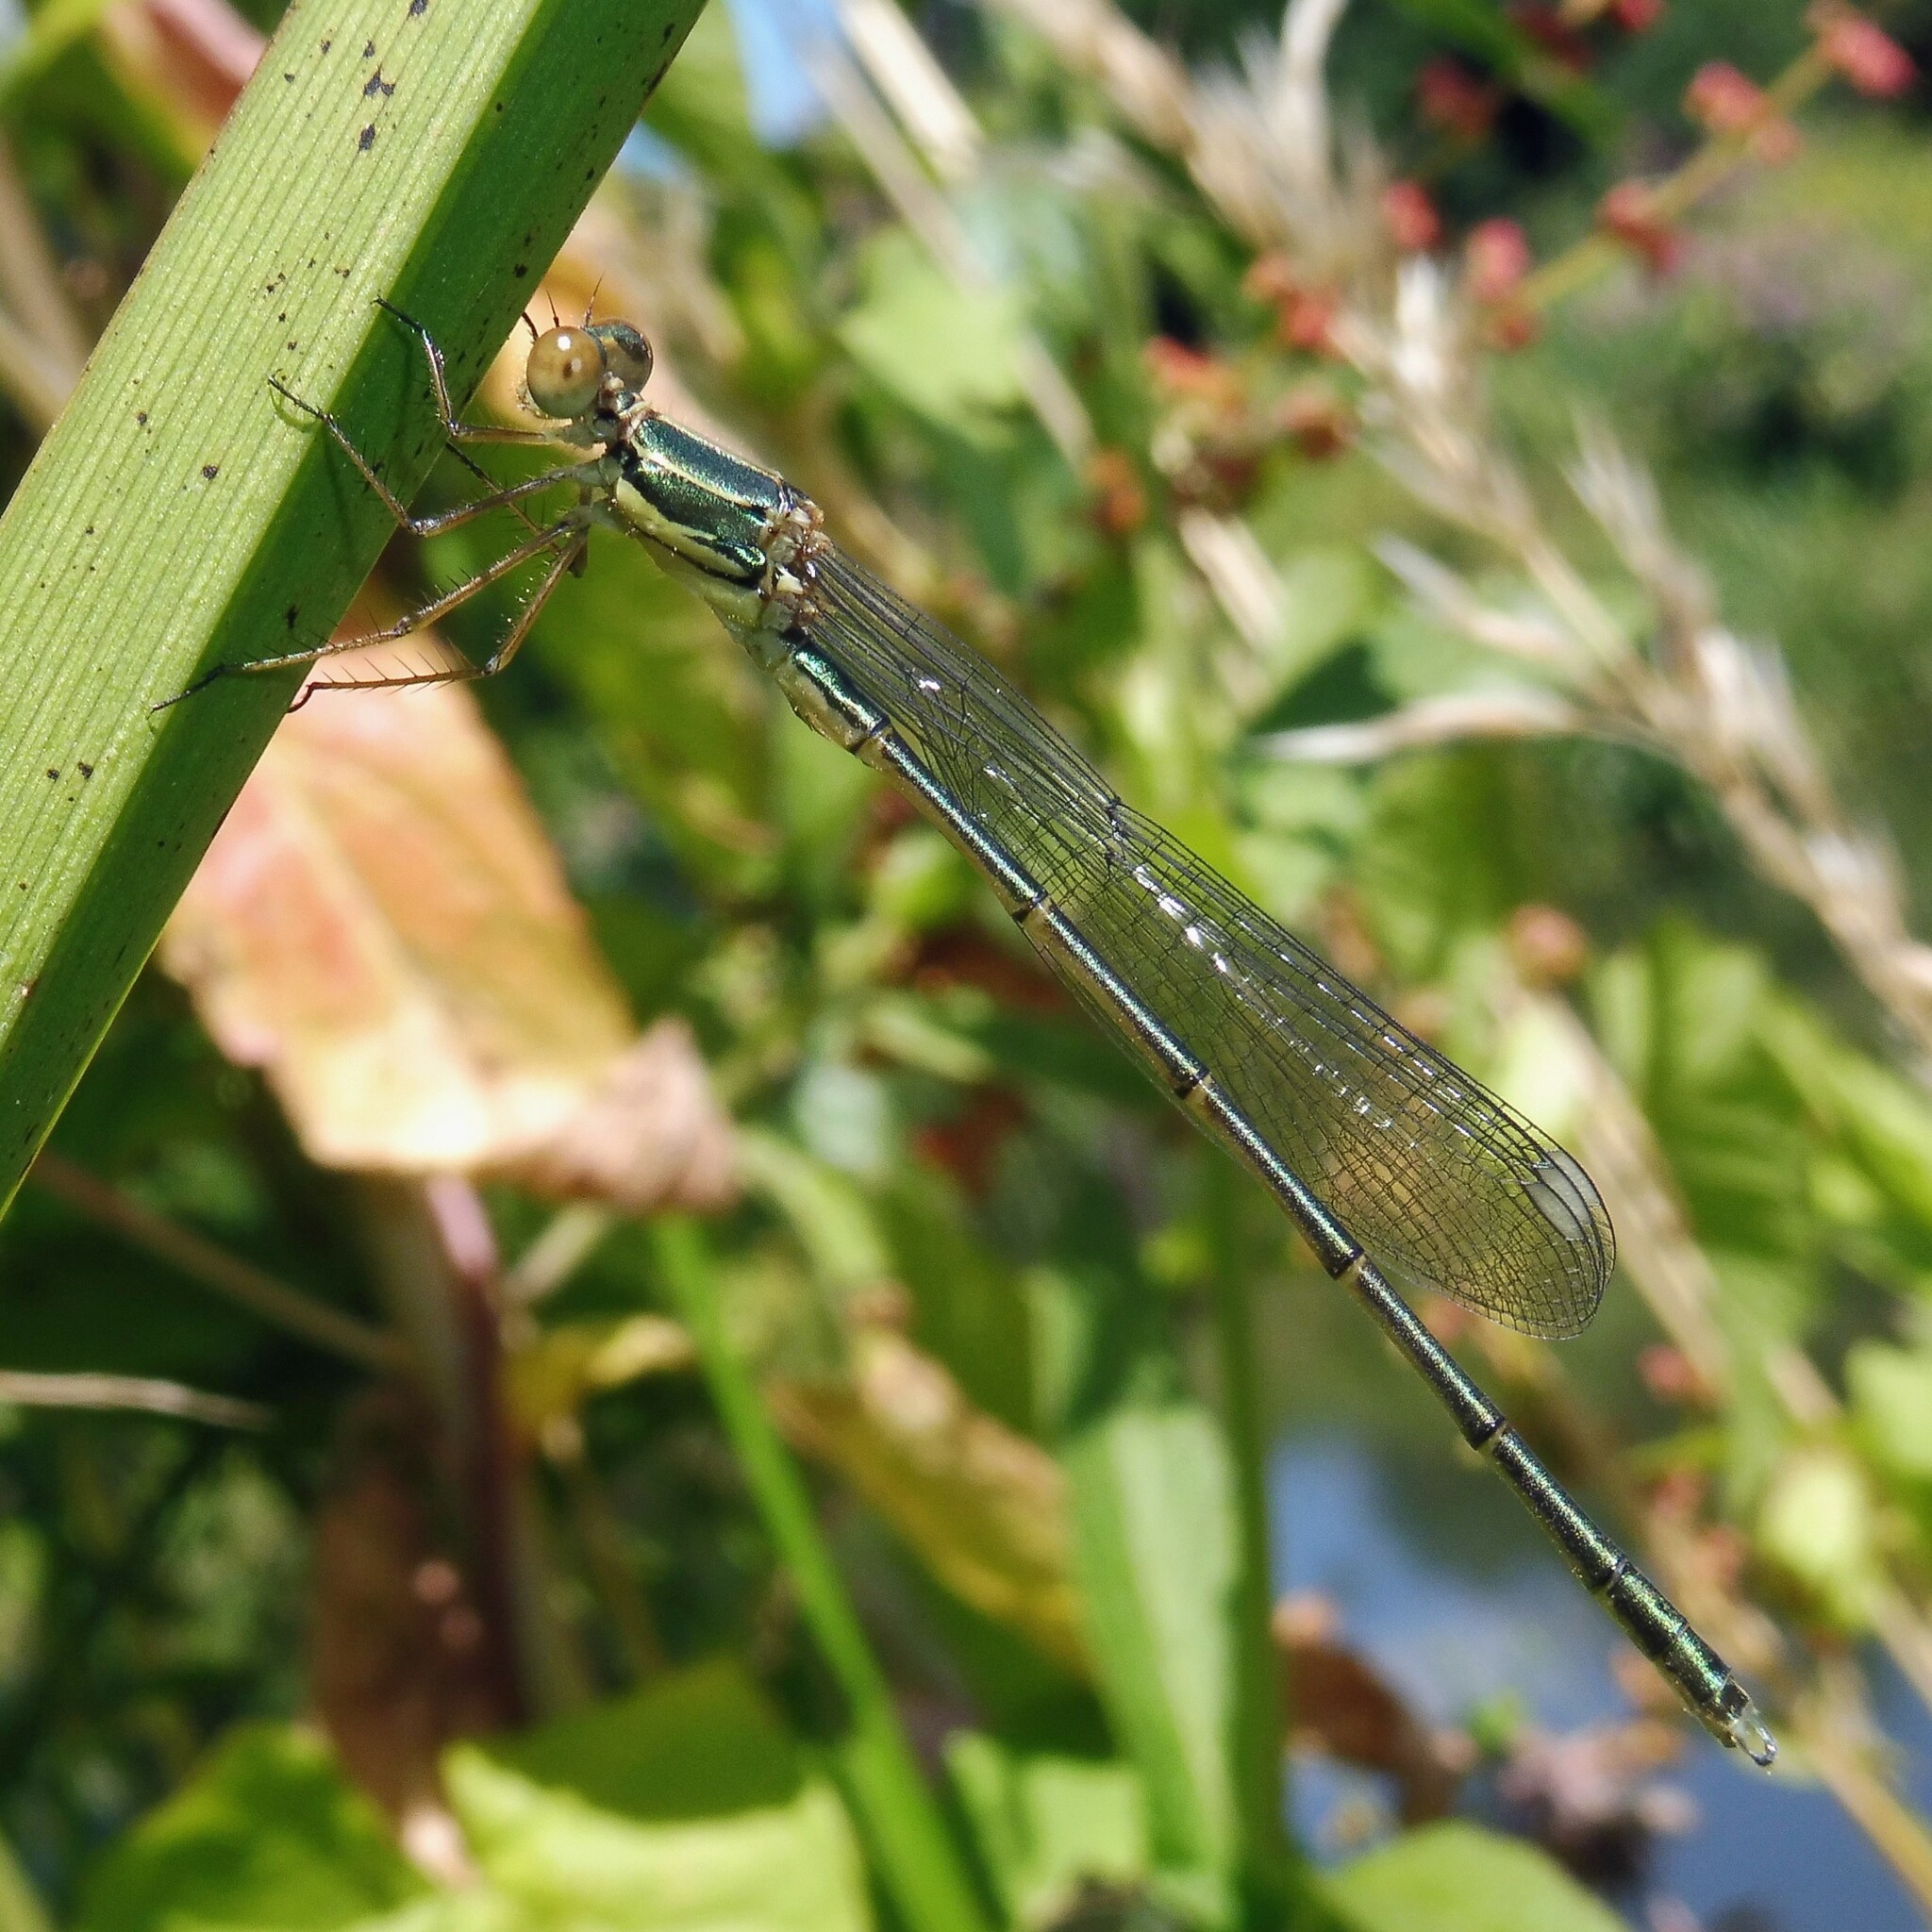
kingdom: Animalia
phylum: Arthropoda
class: Insecta
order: Odonata
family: Lestidae
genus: Chalcolestes
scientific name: Chalcolestes viridis
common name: Green emerald damselfly
